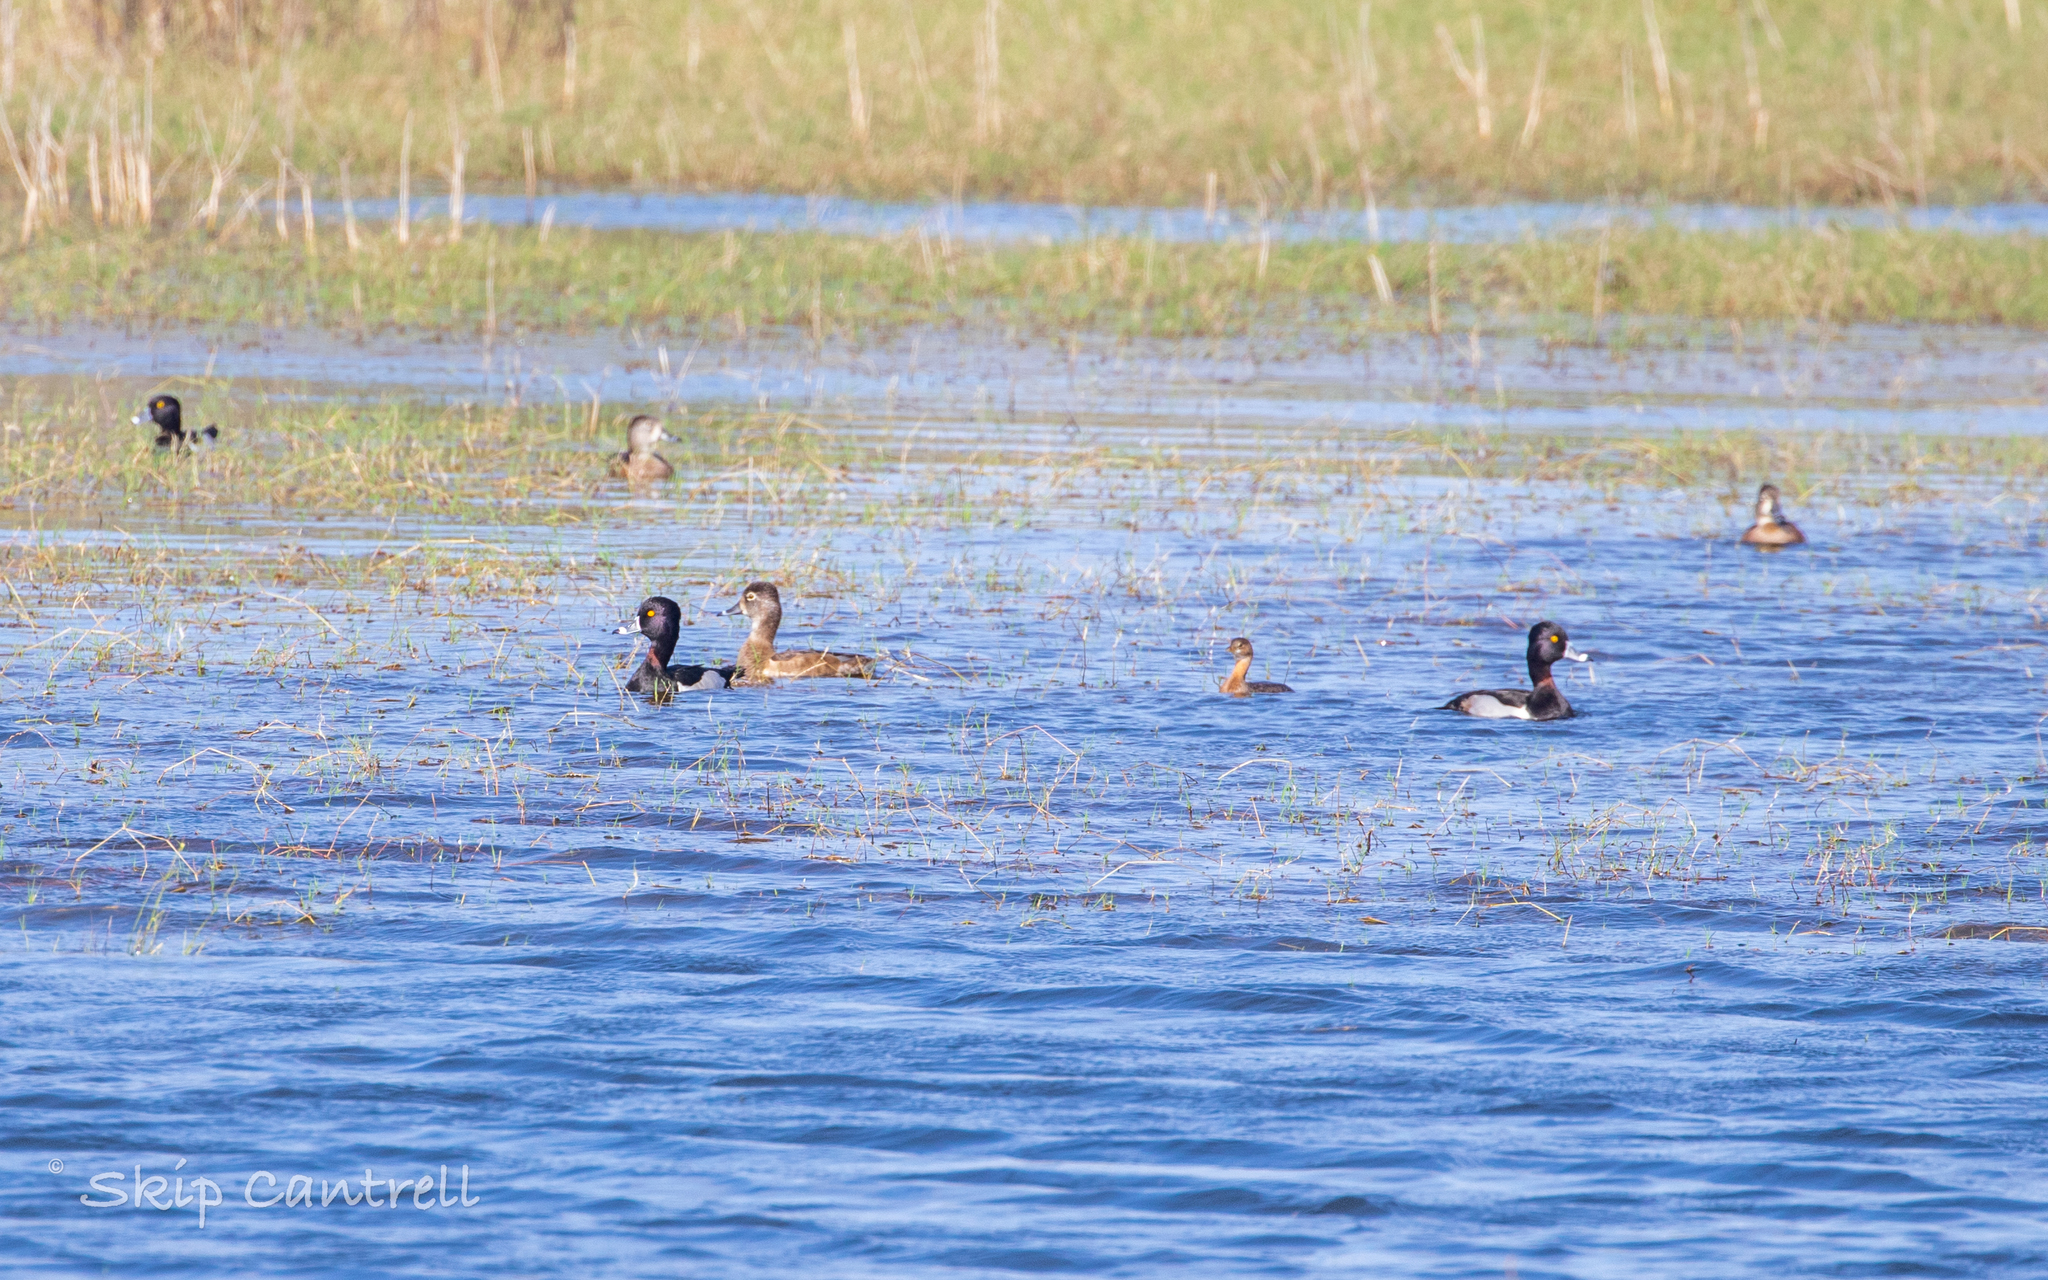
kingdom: Animalia
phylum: Chordata
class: Aves
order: Anseriformes
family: Anatidae
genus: Aythya
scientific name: Aythya collaris
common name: Ring-necked duck
